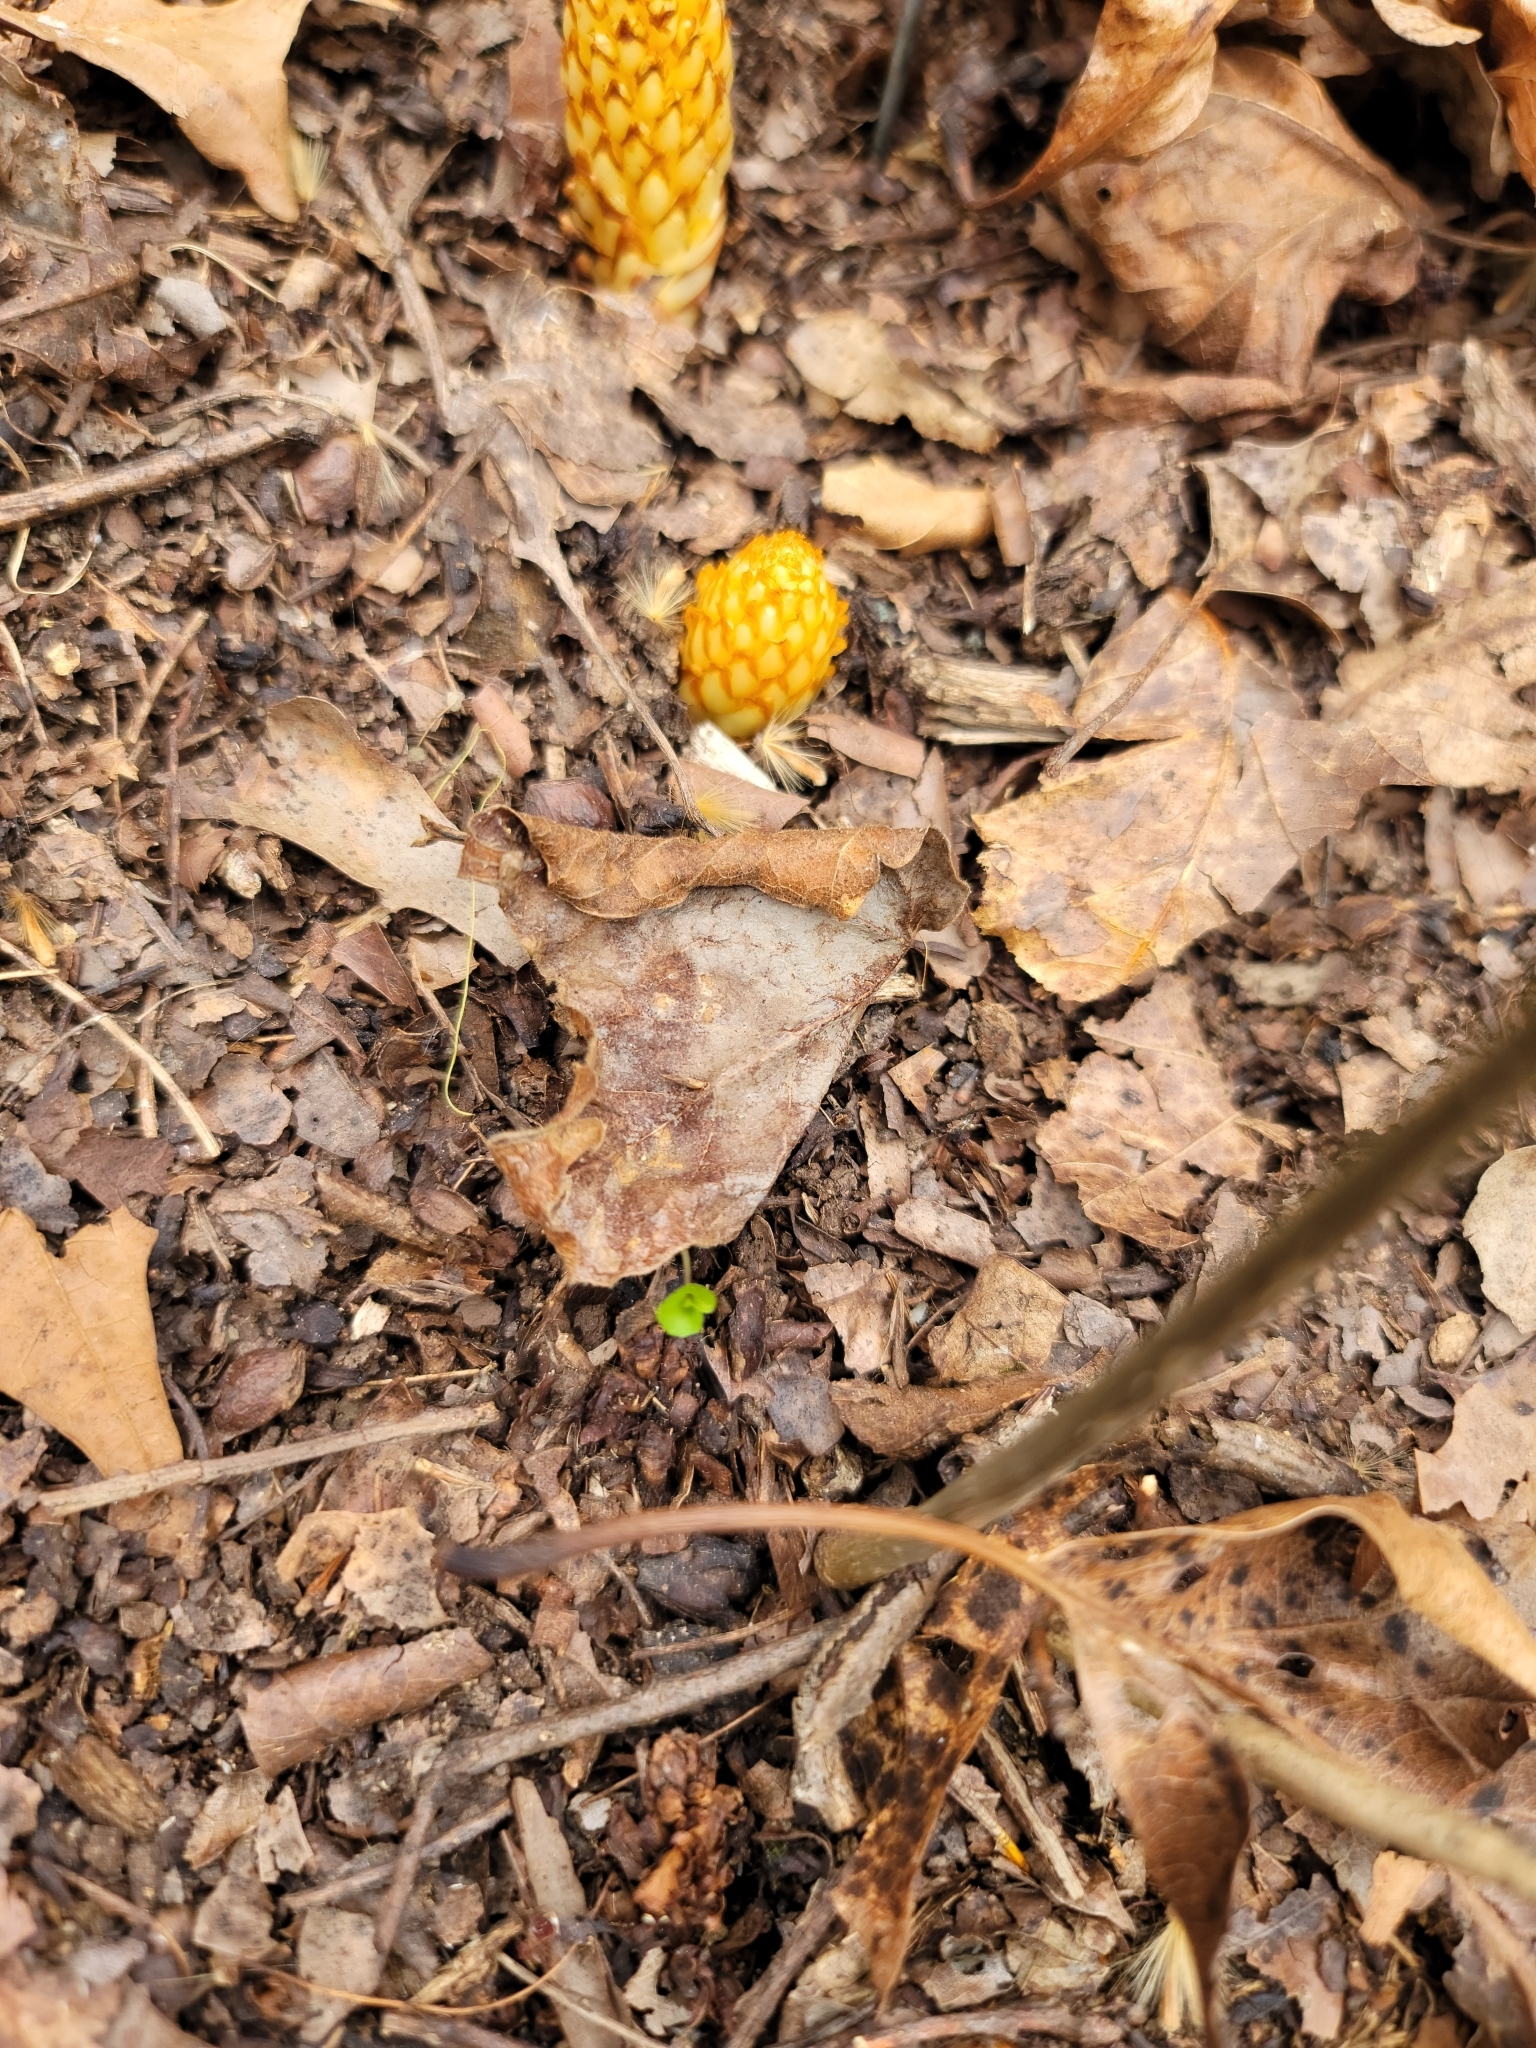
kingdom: Plantae
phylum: Tracheophyta
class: Magnoliopsida
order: Lamiales
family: Orobanchaceae
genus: Conopholis
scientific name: Conopholis americana
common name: American cancer-root
